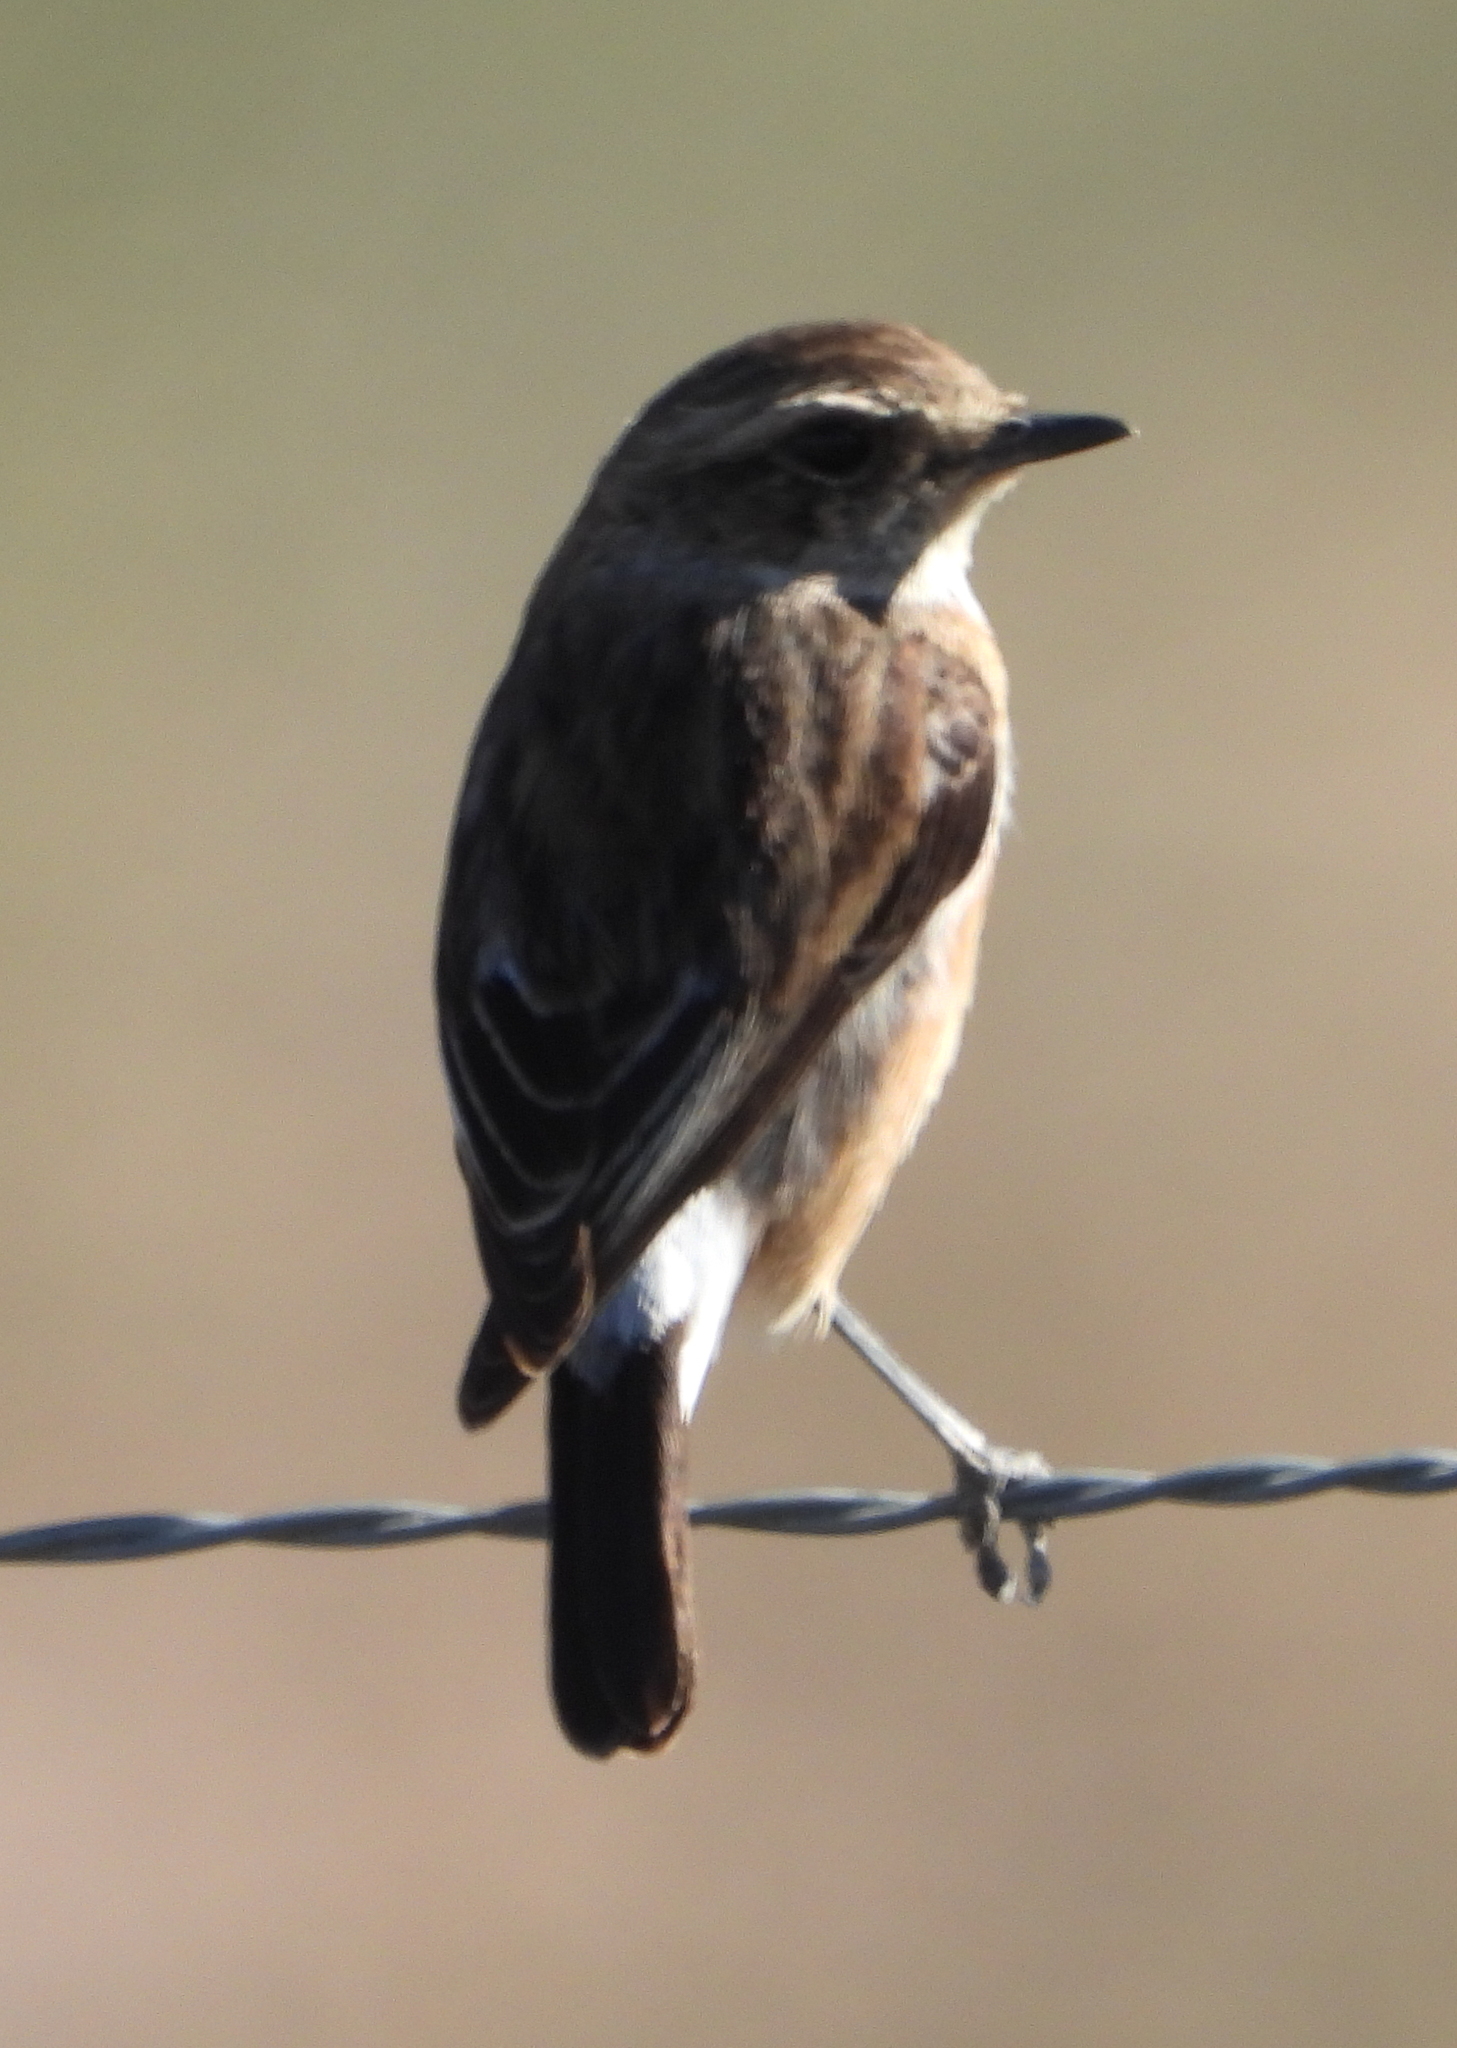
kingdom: Animalia
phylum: Chordata
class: Aves
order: Passeriformes
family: Muscicapidae
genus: Saxicola
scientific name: Saxicola torquatus
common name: African stonechat
